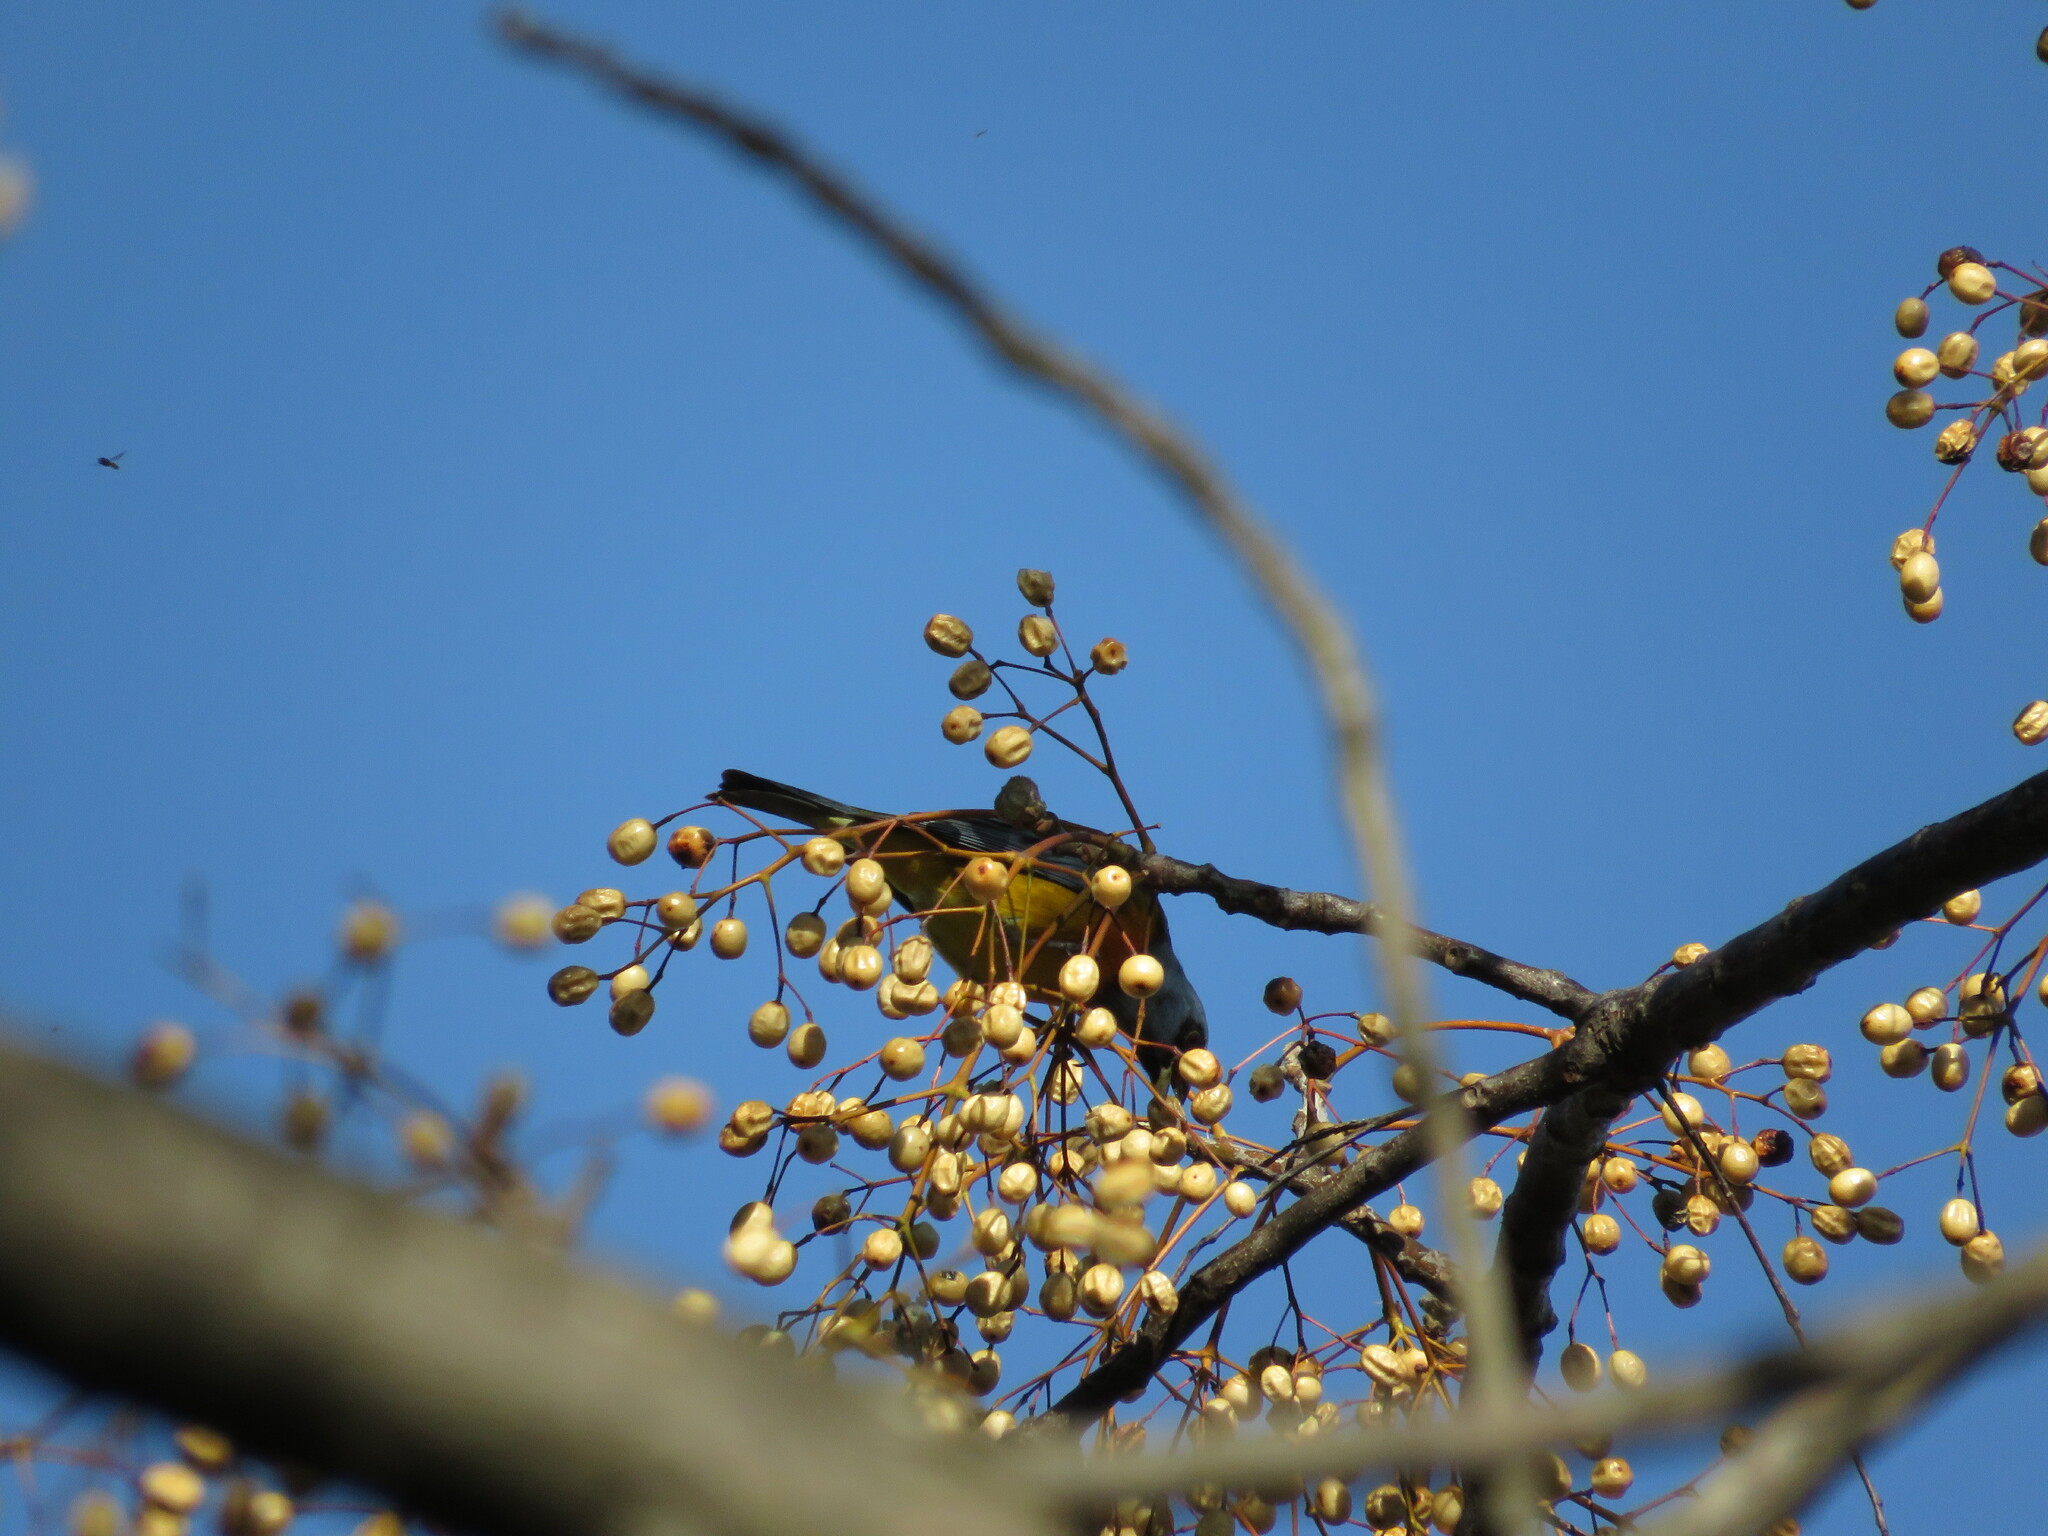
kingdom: Animalia
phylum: Chordata
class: Aves
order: Passeriformes
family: Thraupidae
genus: Rauenia
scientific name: Rauenia bonariensis
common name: Blue-and-yellow tanager
